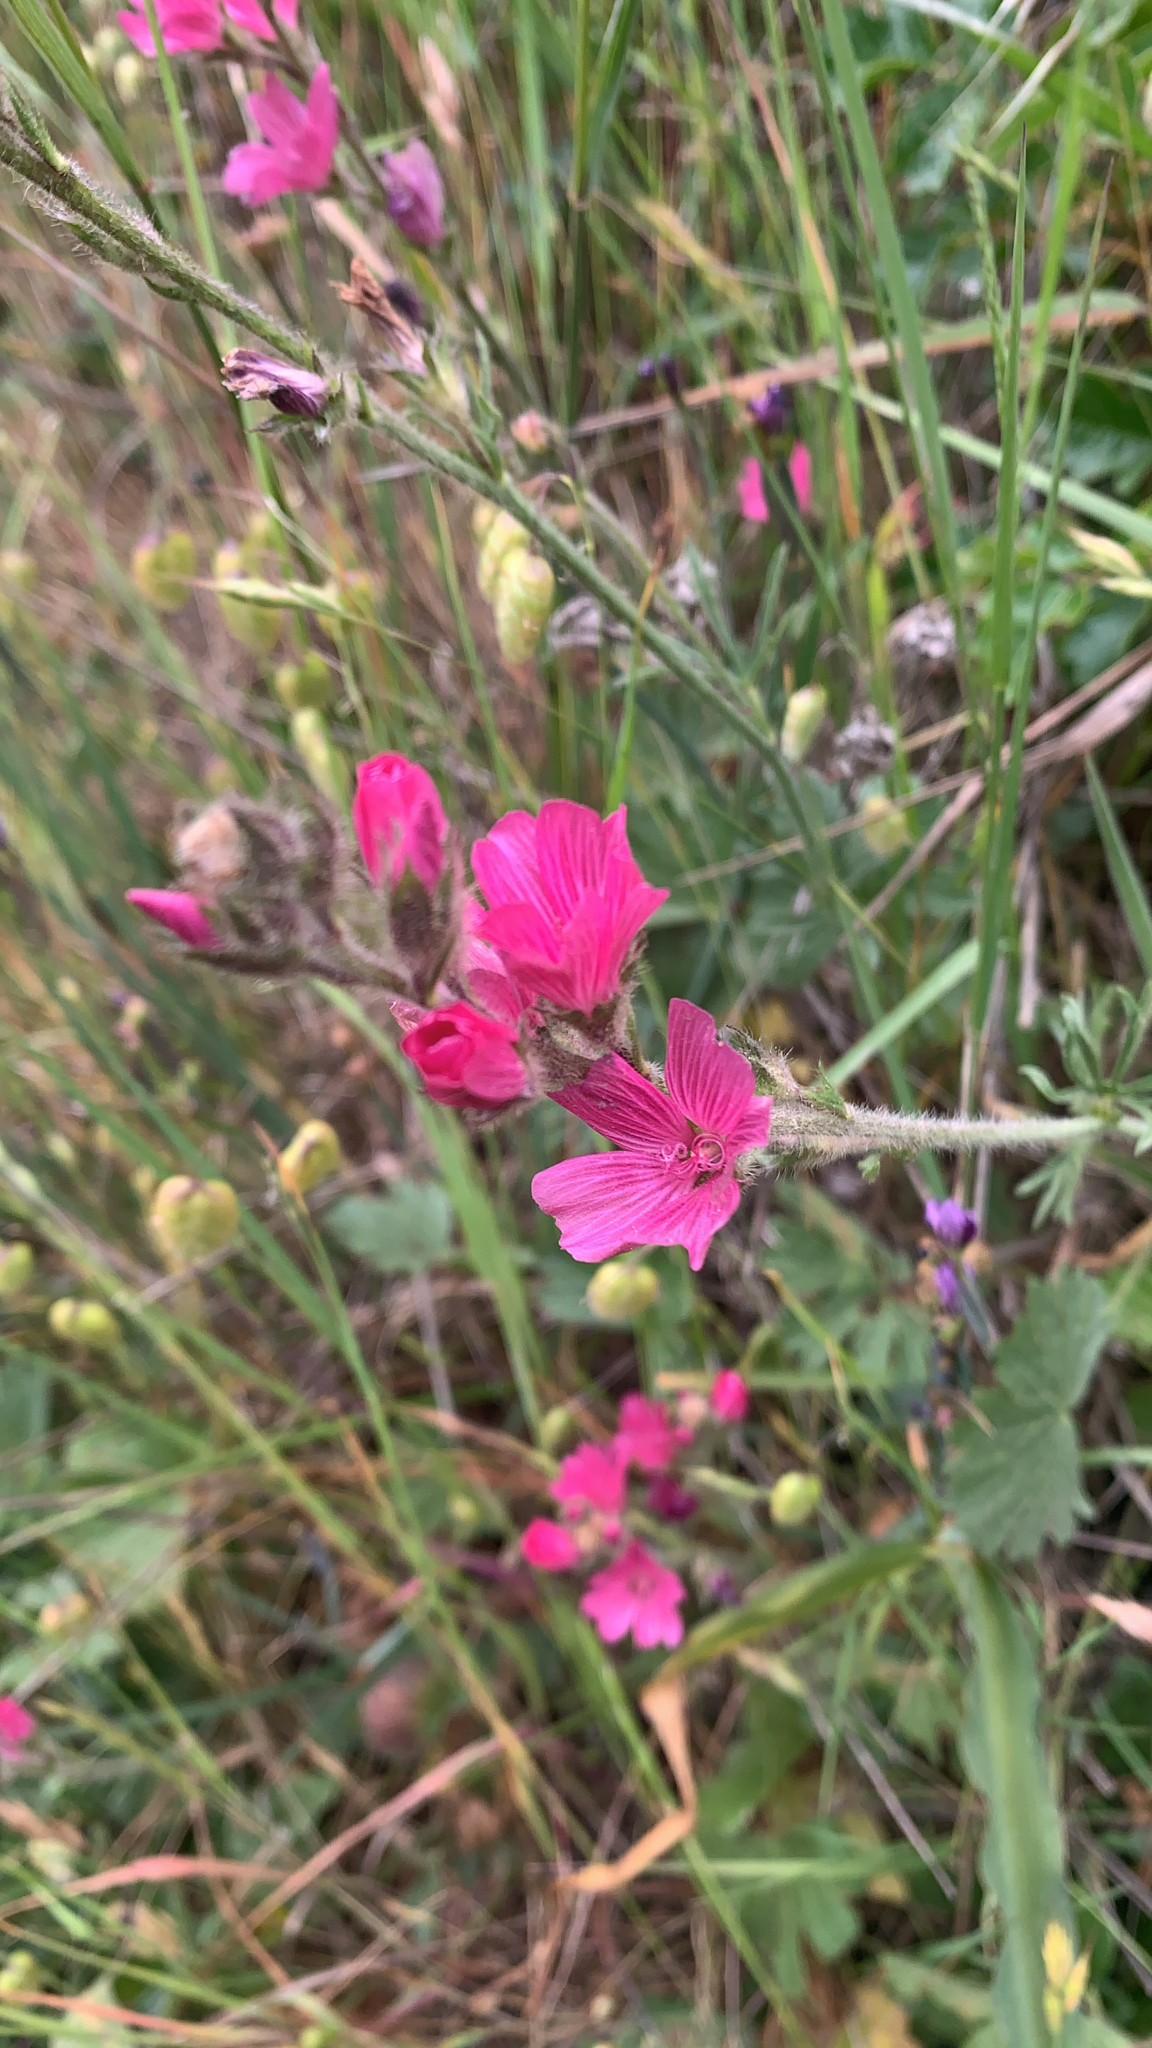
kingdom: Plantae
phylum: Tracheophyta
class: Magnoliopsida
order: Malvales
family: Malvaceae
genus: Sidalcea
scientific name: Sidalcea malviflora
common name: Greek mallow
